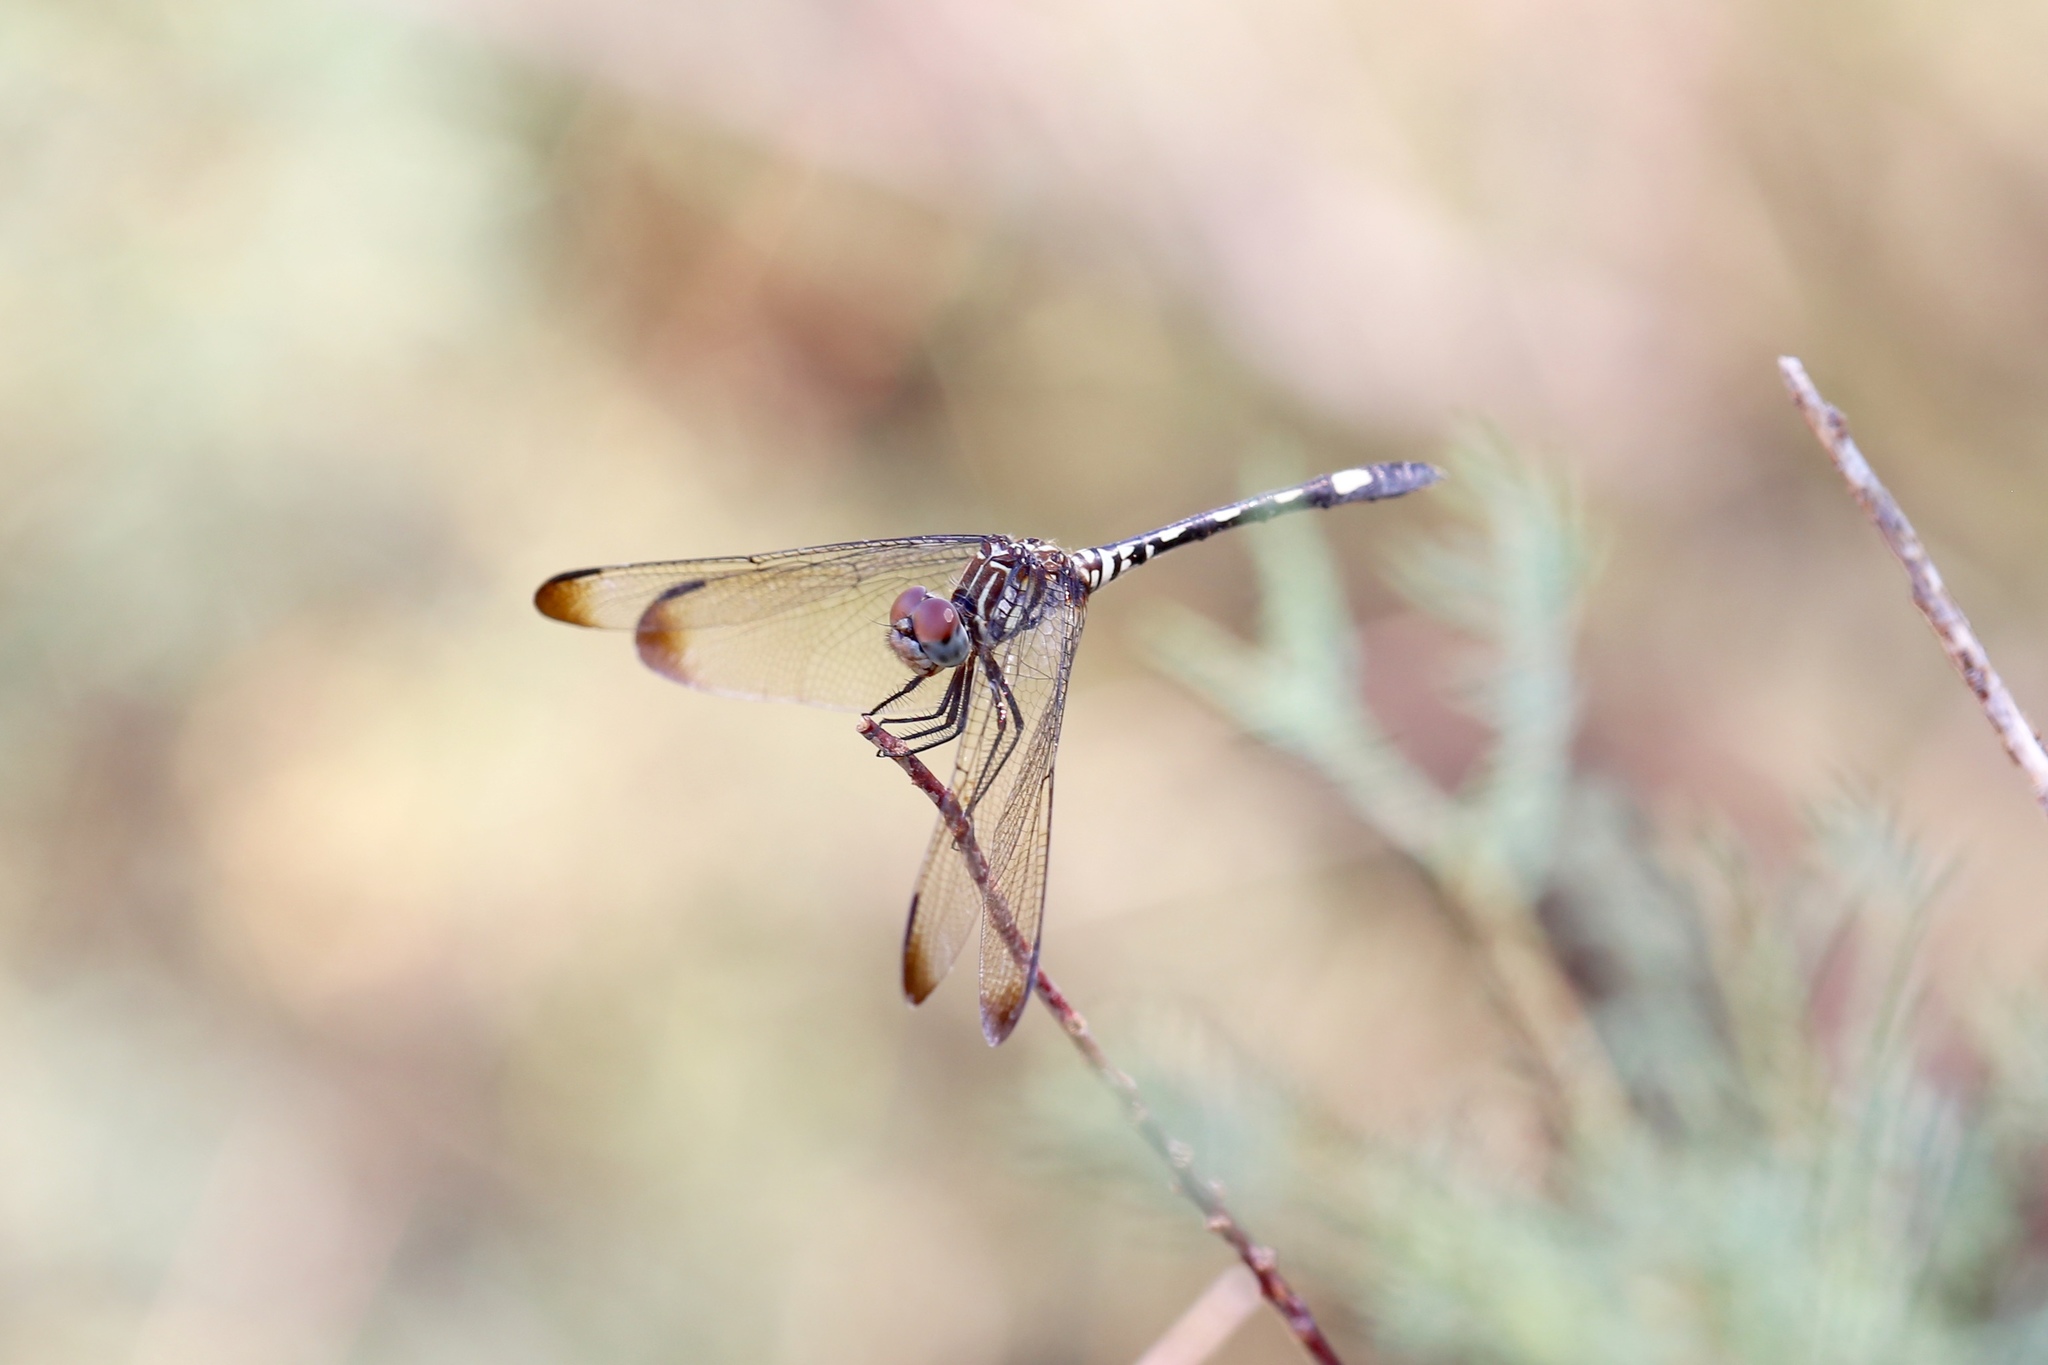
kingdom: Animalia
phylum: Arthropoda
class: Insecta
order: Odonata
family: Libellulidae
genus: Dythemis
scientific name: Dythemis velox
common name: Swift setwing
